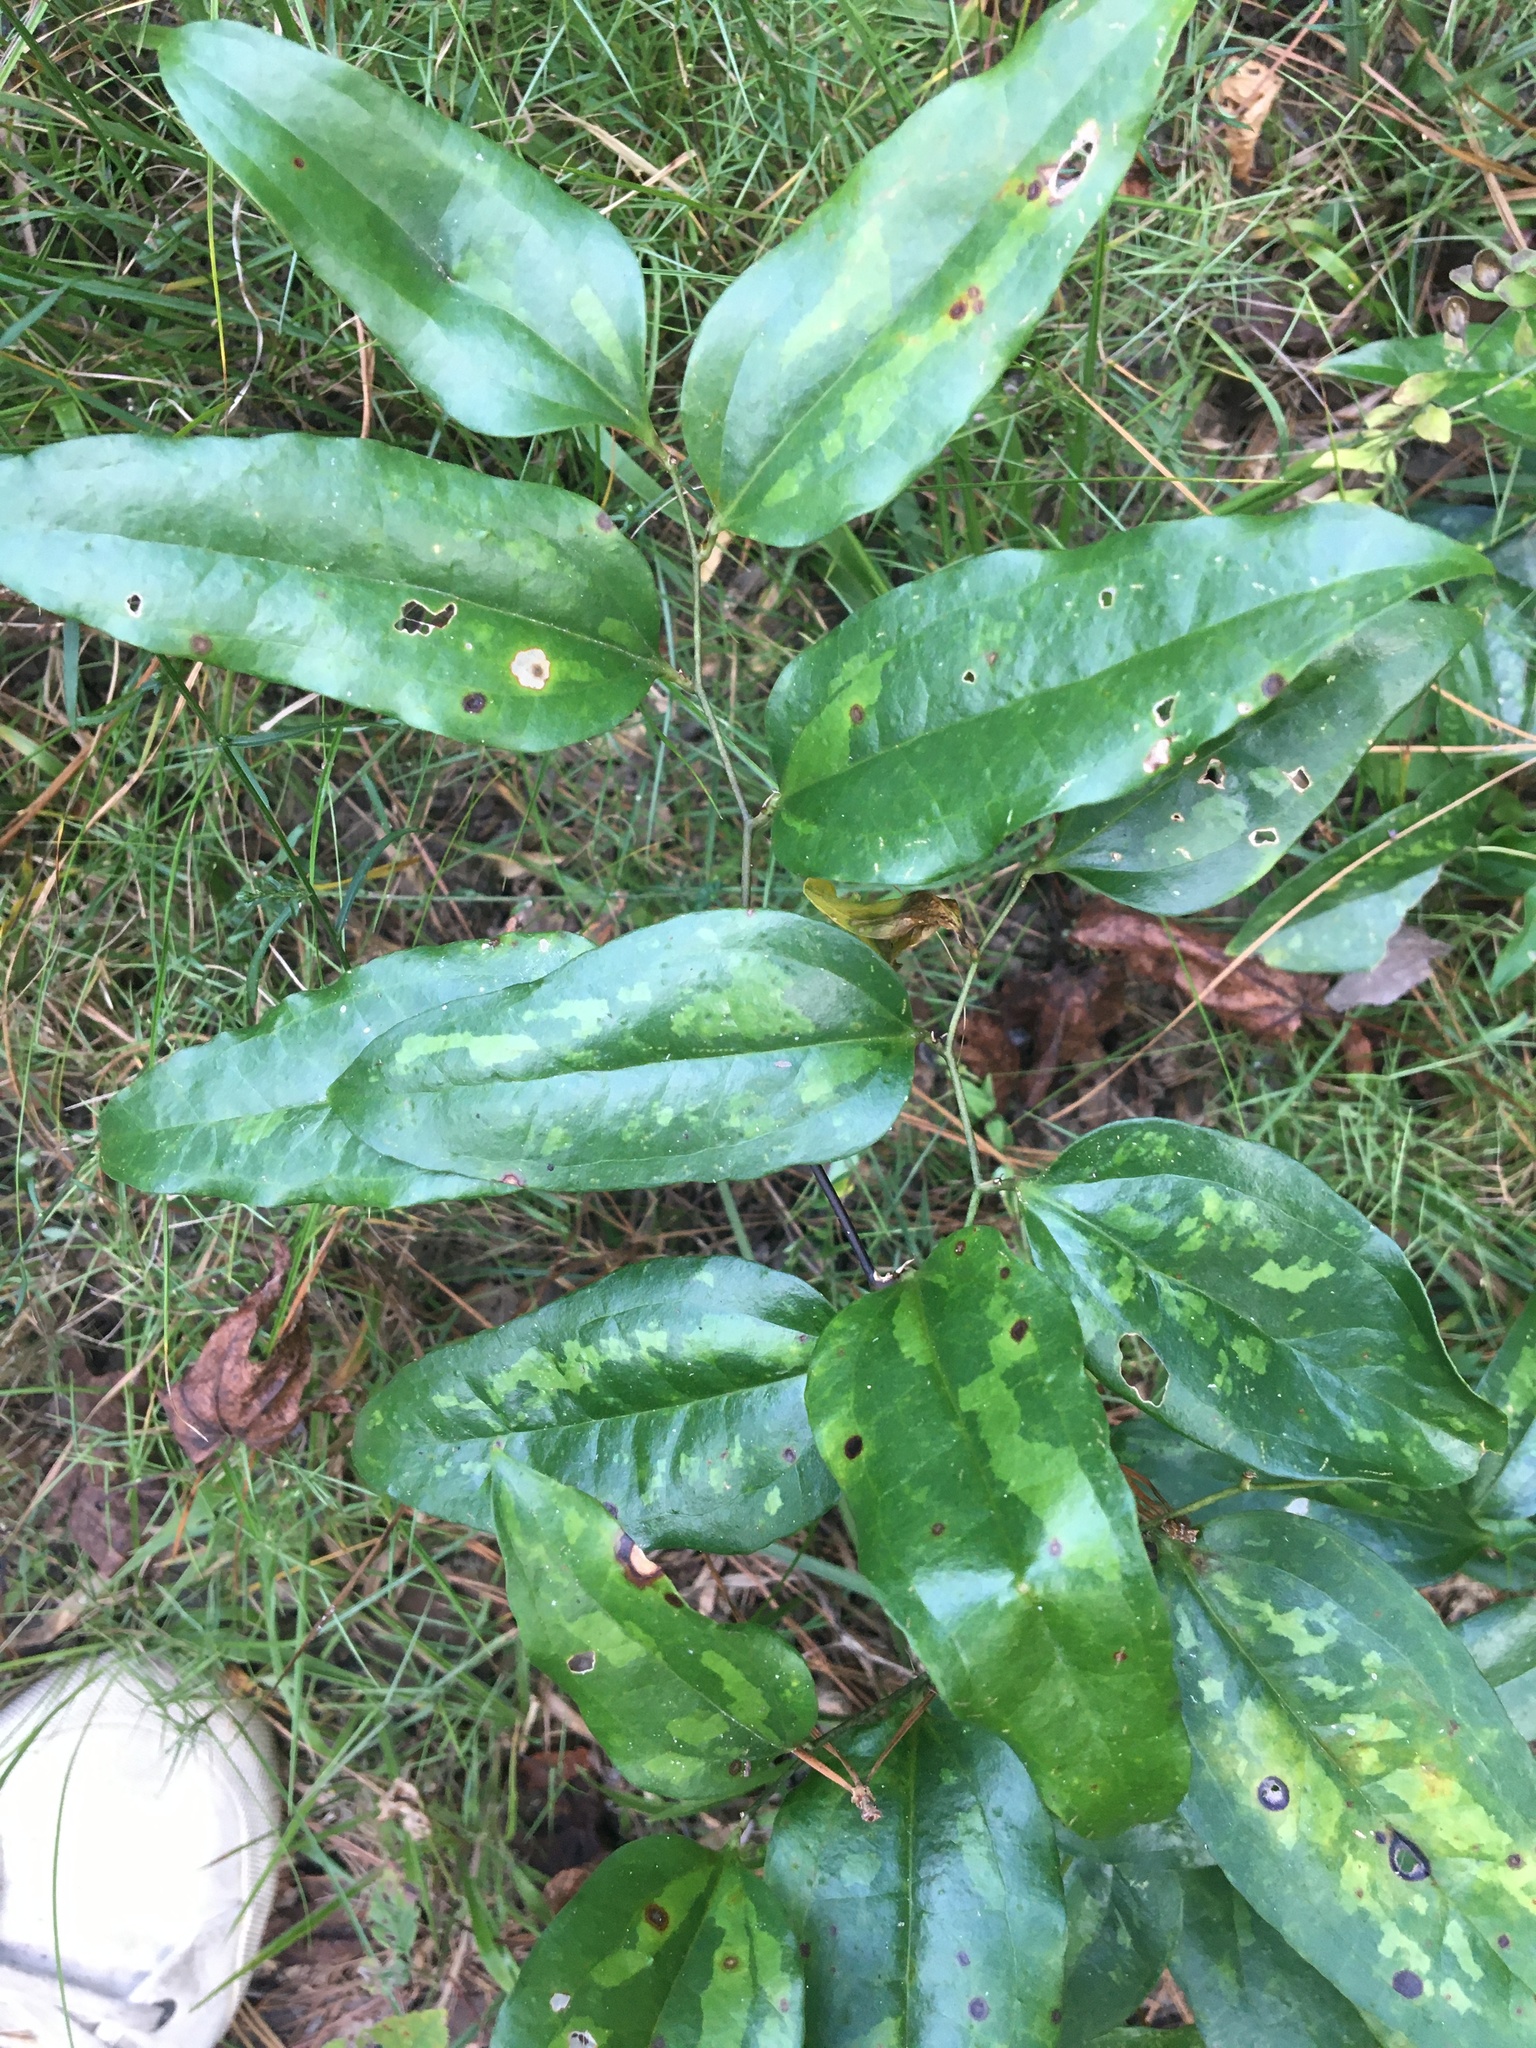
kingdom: Plantae
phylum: Tracheophyta
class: Liliopsida
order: Liliales
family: Smilacaceae
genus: Smilax
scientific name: Smilax maritima
